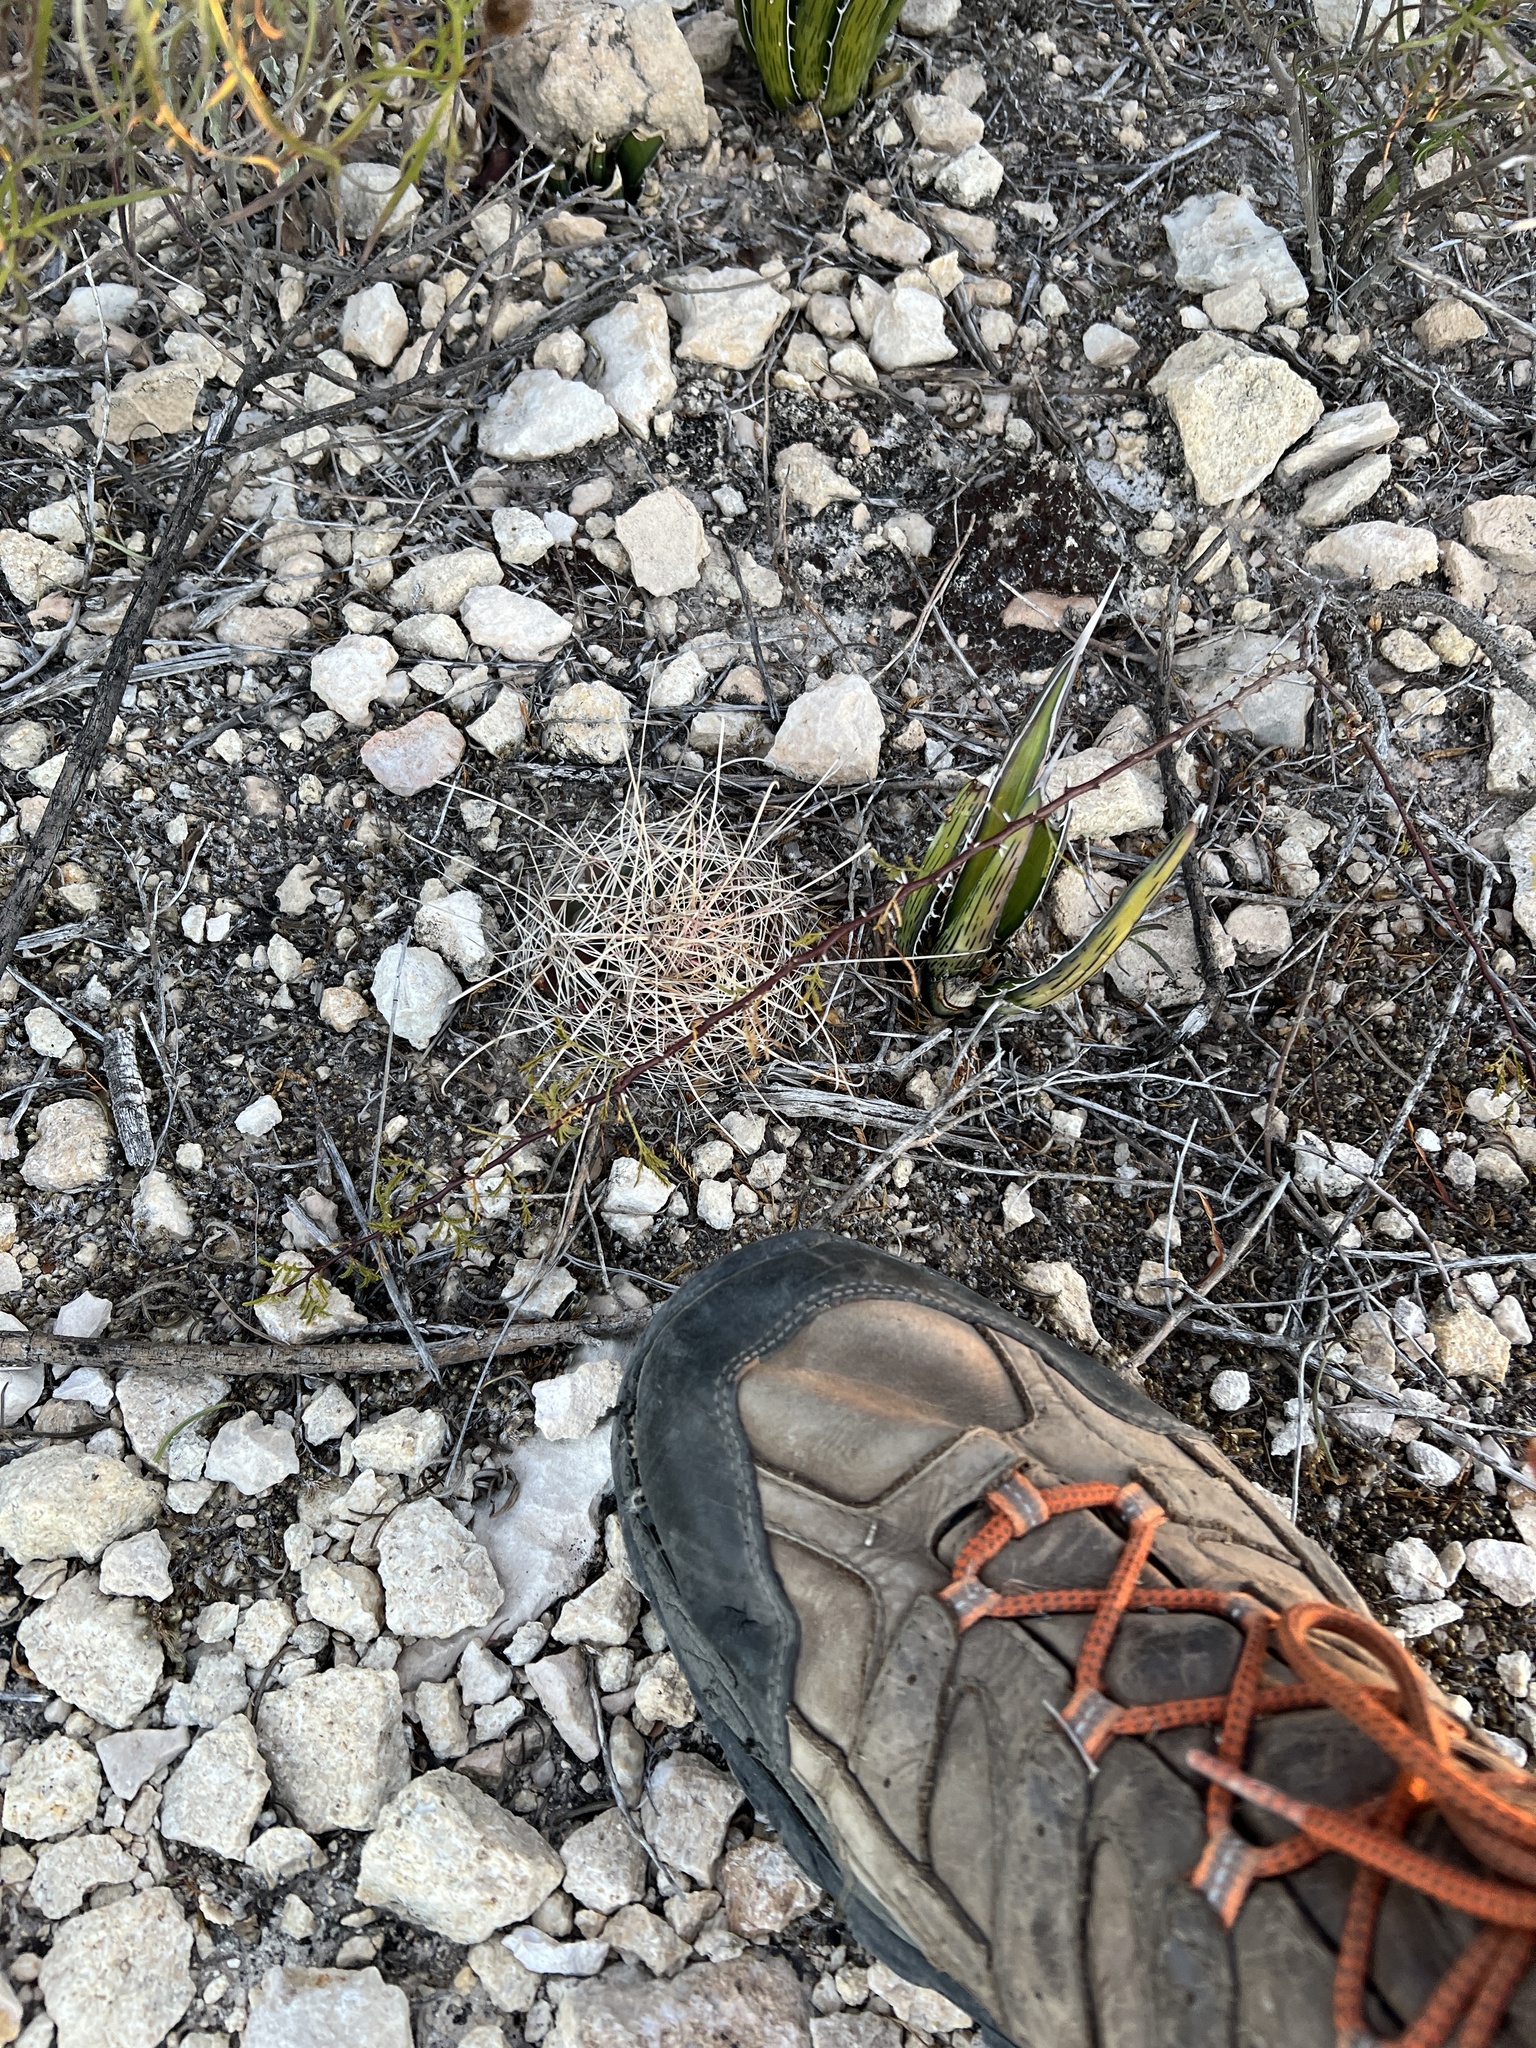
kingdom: Plantae
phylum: Tracheophyta
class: Magnoliopsida
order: Caryophyllales
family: Cactaceae
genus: Bisnaga
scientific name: Bisnaga hamatacantha
